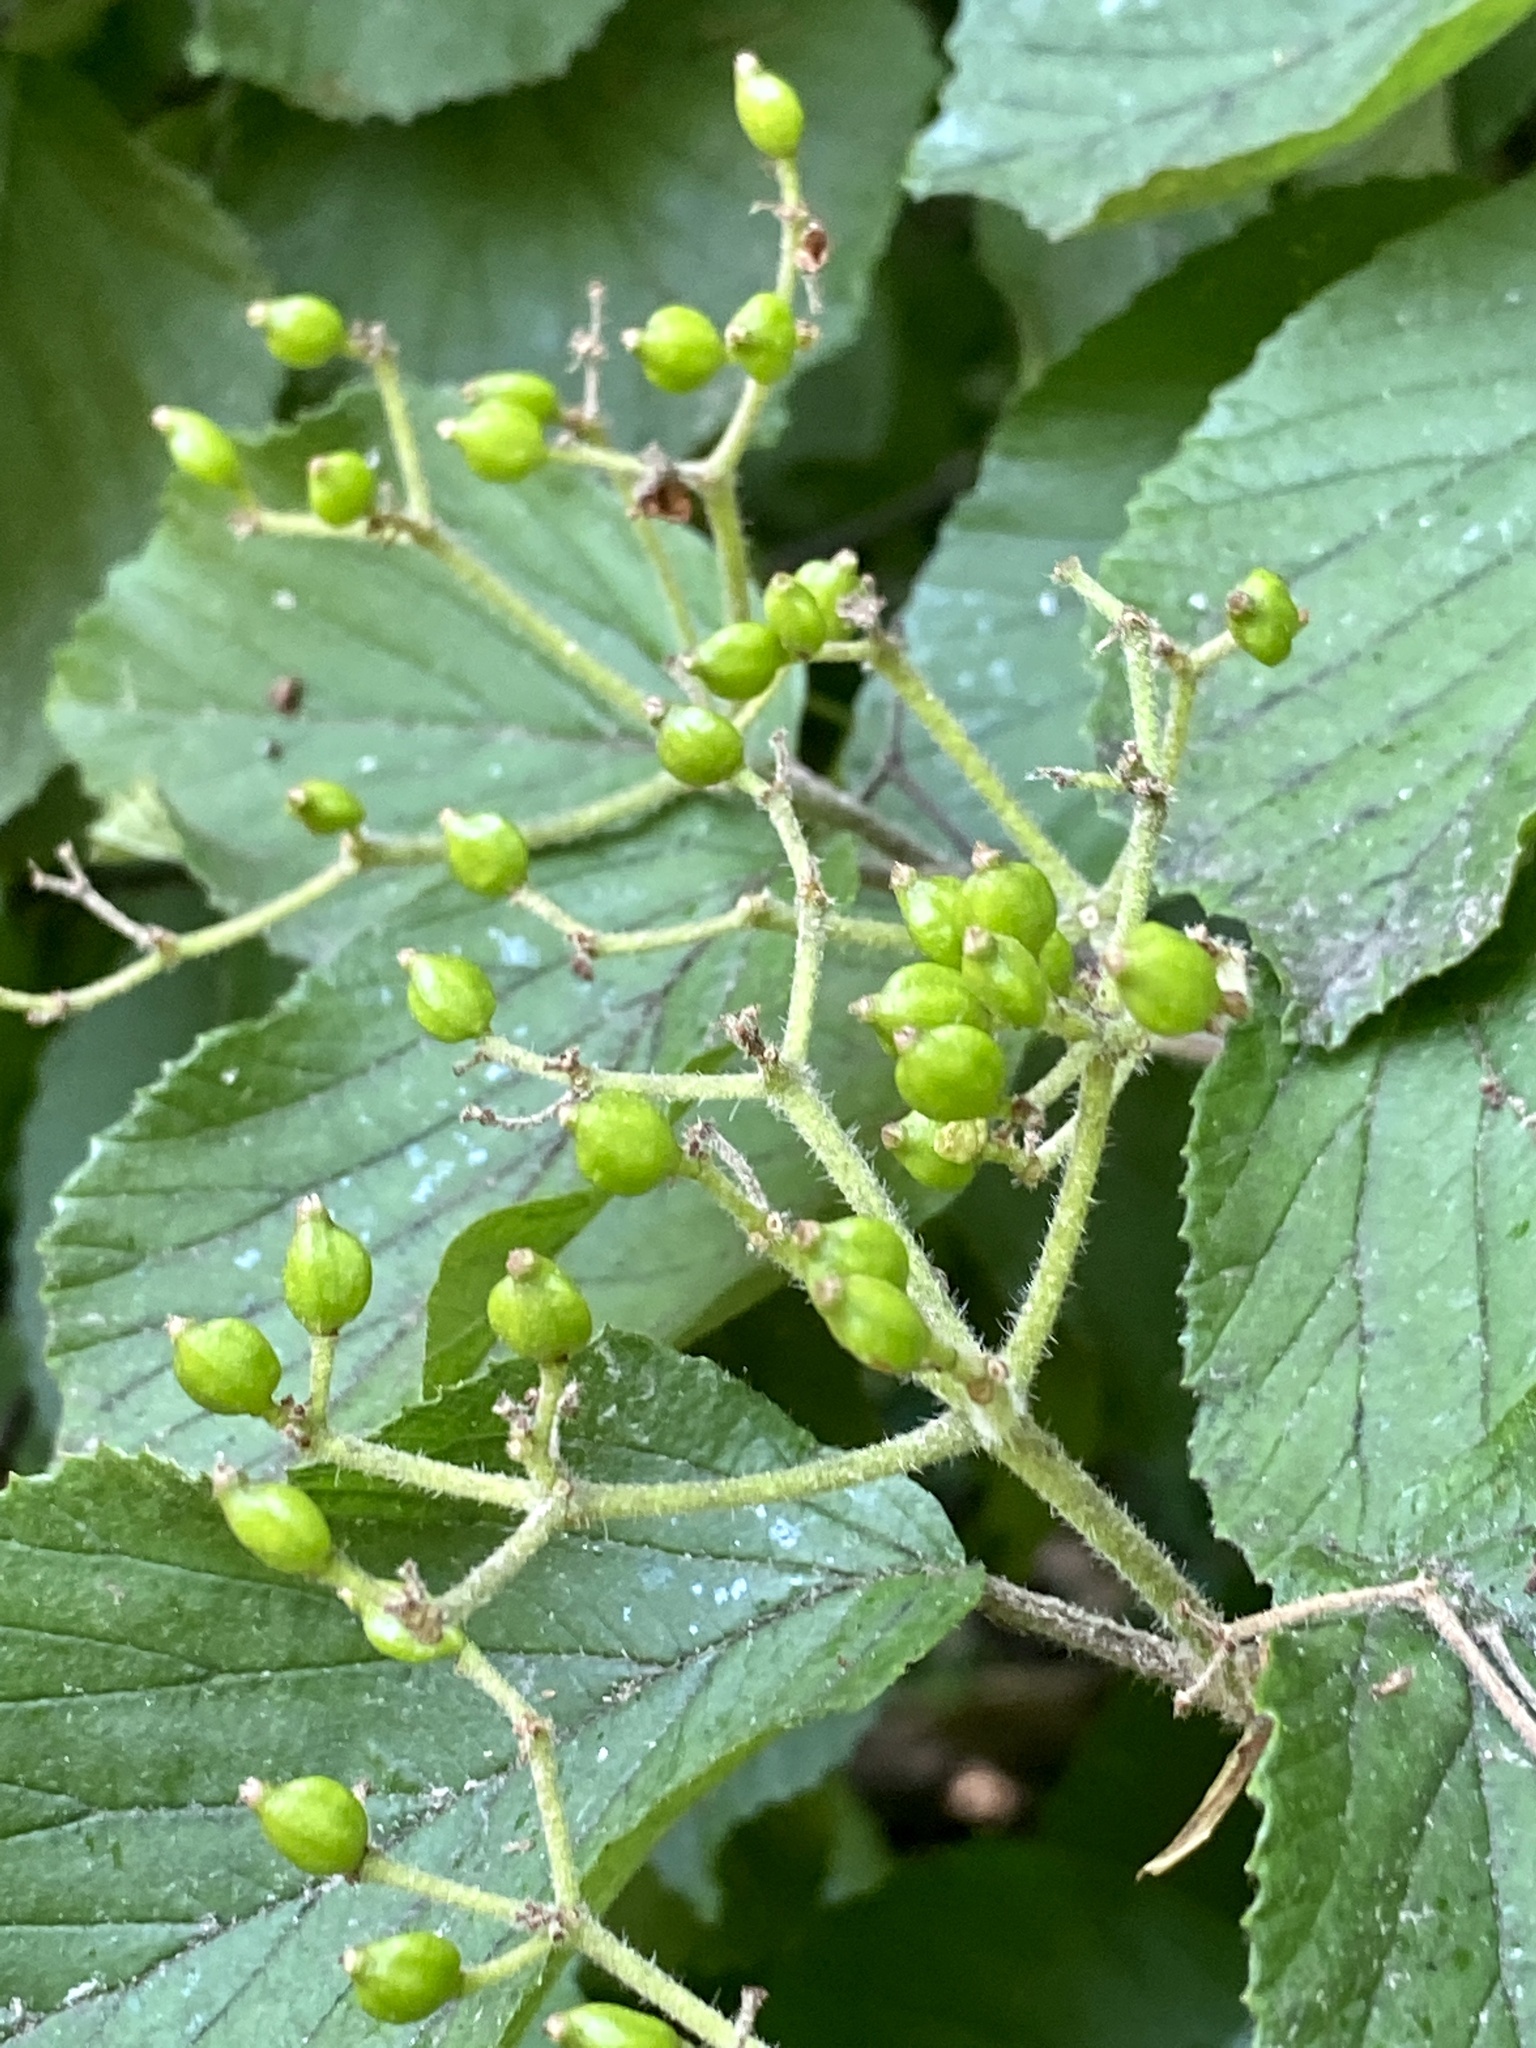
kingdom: Plantae
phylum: Tracheophyta
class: Magnoliopsida
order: Dipsacales
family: Viburnaceae
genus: Viburnum
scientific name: Viburnum dilatatum
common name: Linden arrowwood
